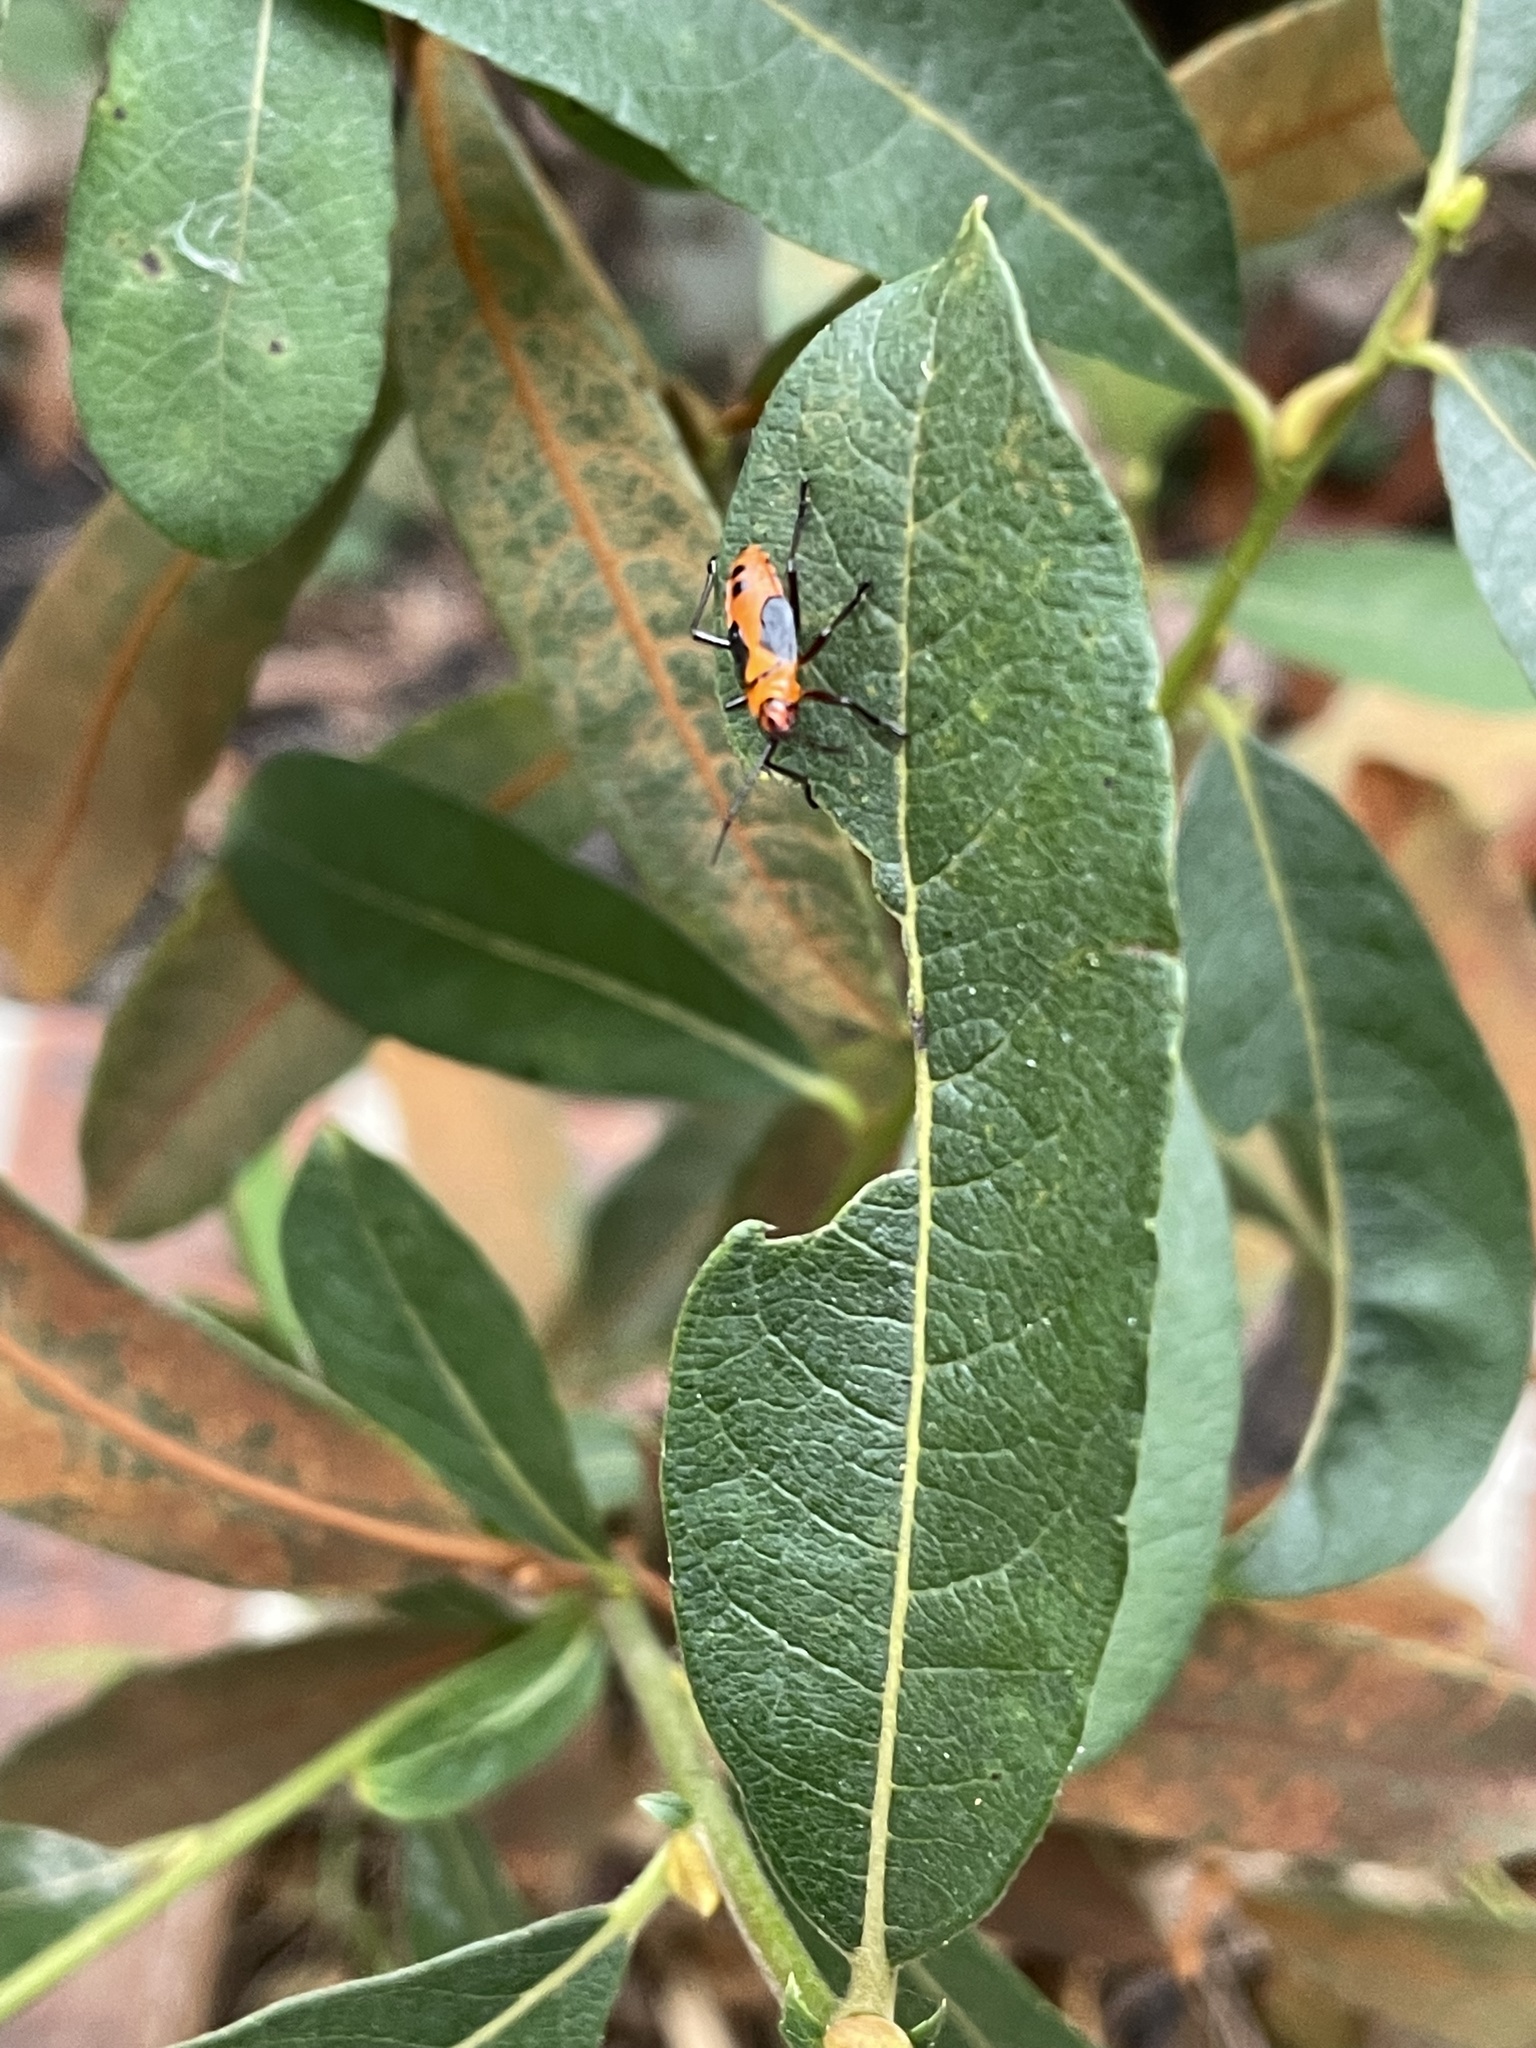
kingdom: Animalia
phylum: Arthropoda
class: Insecta
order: Hemiptera
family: Lygaeidae
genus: Oncopeltus
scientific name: Oncopeltus fasciatus
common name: Large milkweed bug
